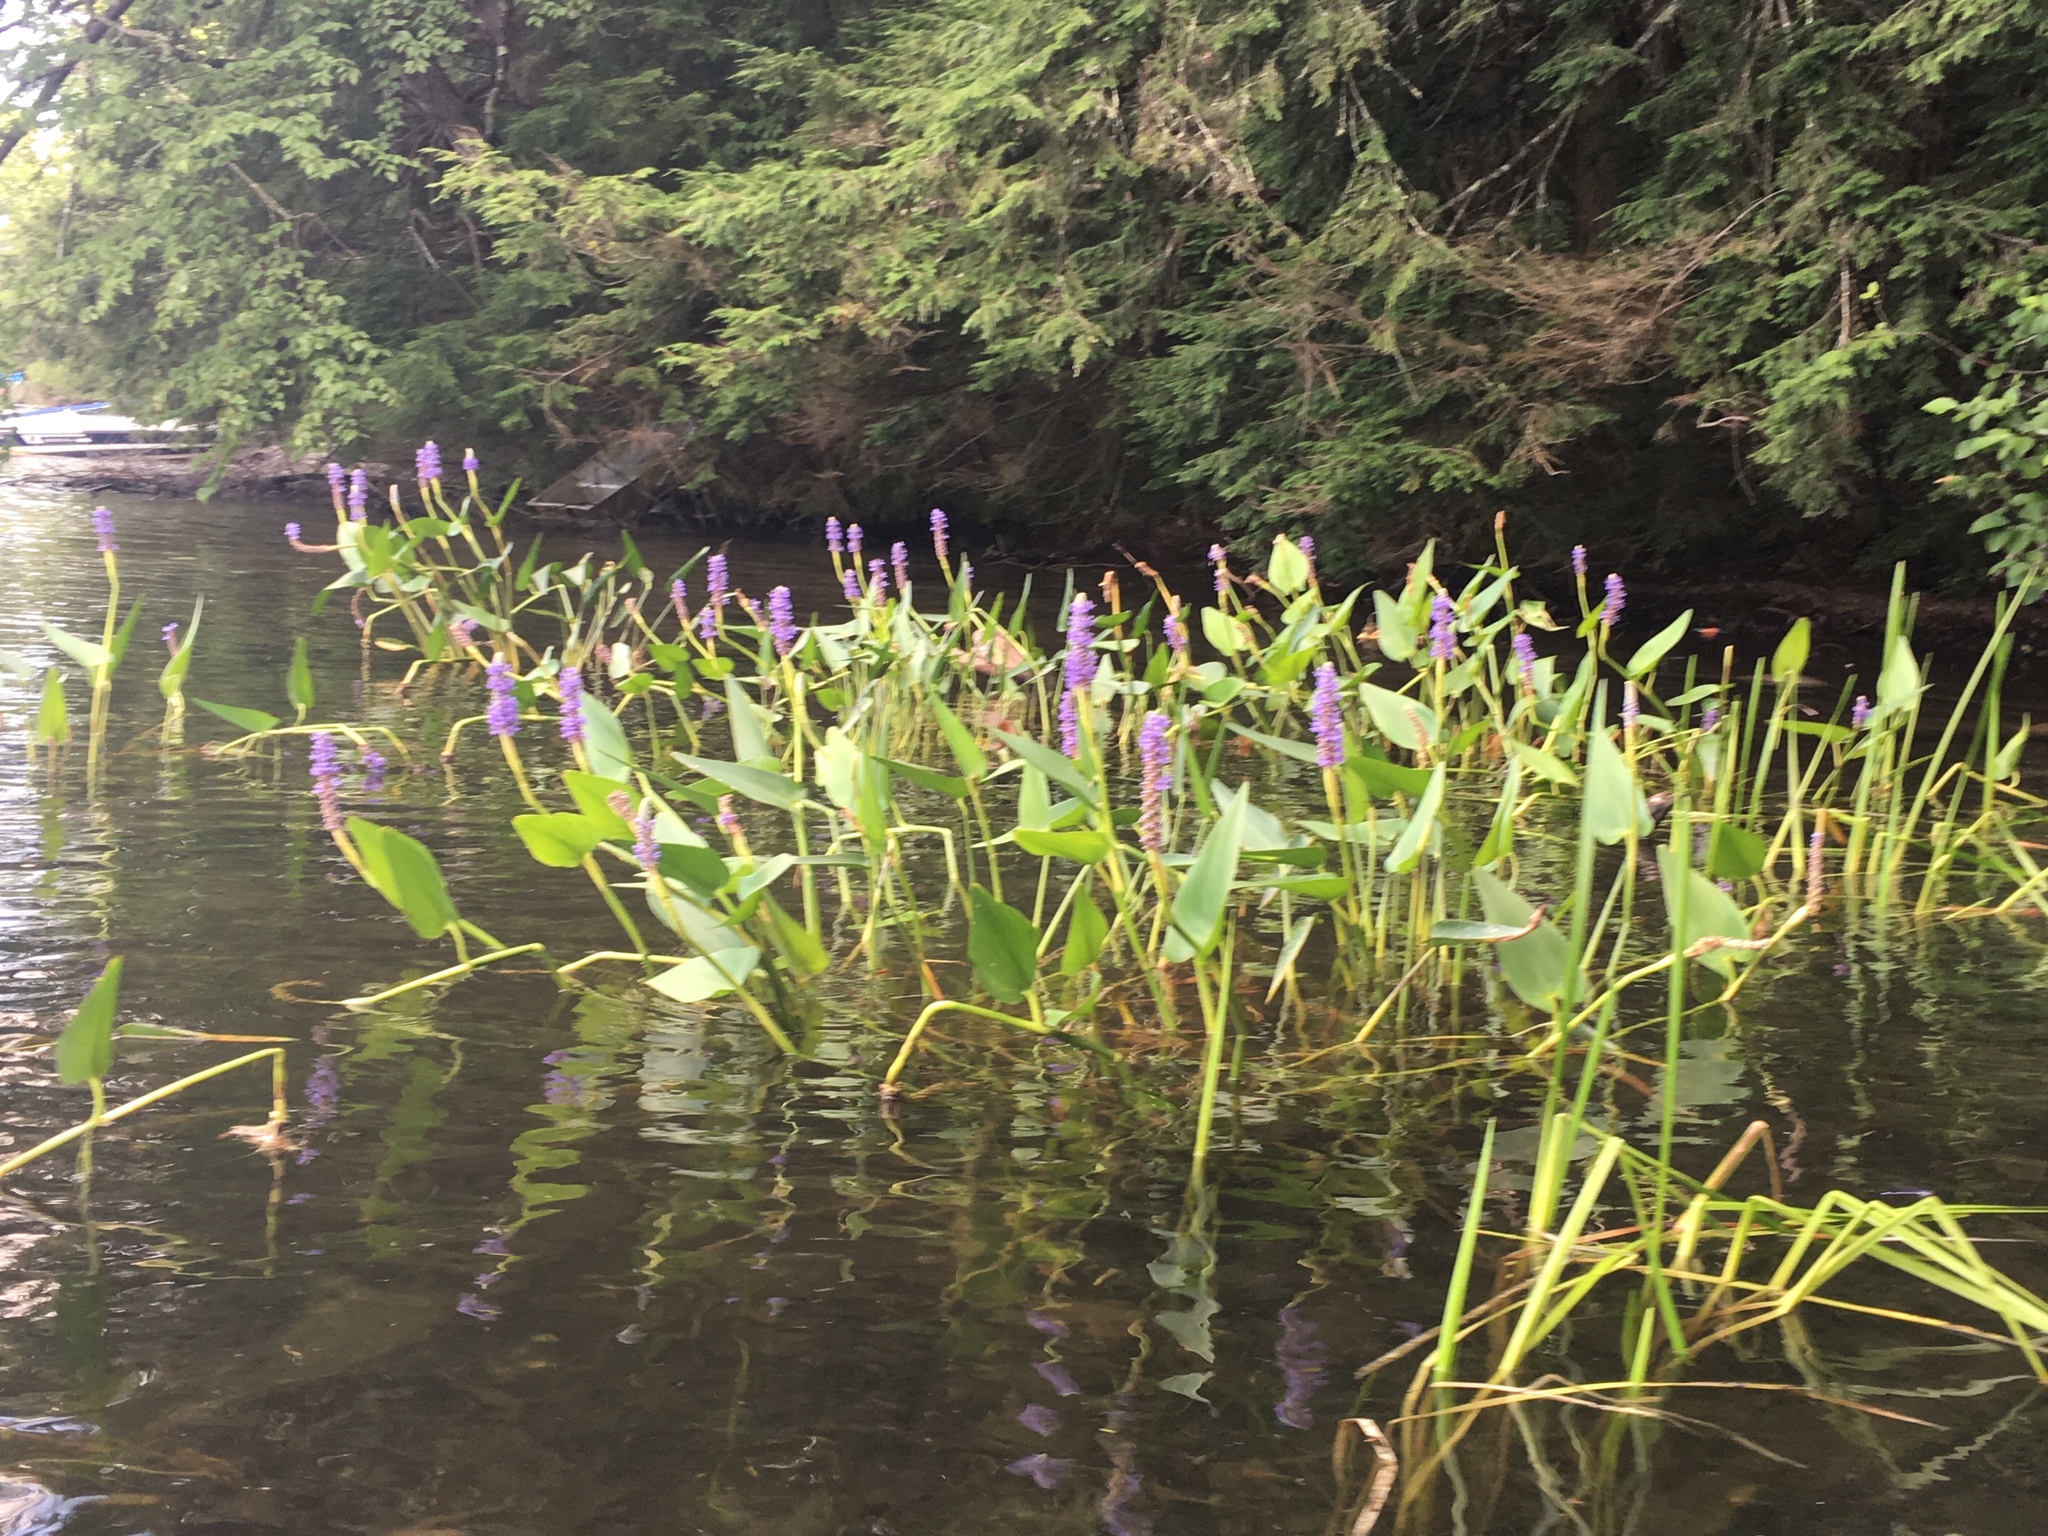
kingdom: Plantae
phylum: Tracheophyta
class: Liliopsida
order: Commelinales
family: Pontederiaceae
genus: Pontederia
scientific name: Pontederia cordata
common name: Pickerelweed
